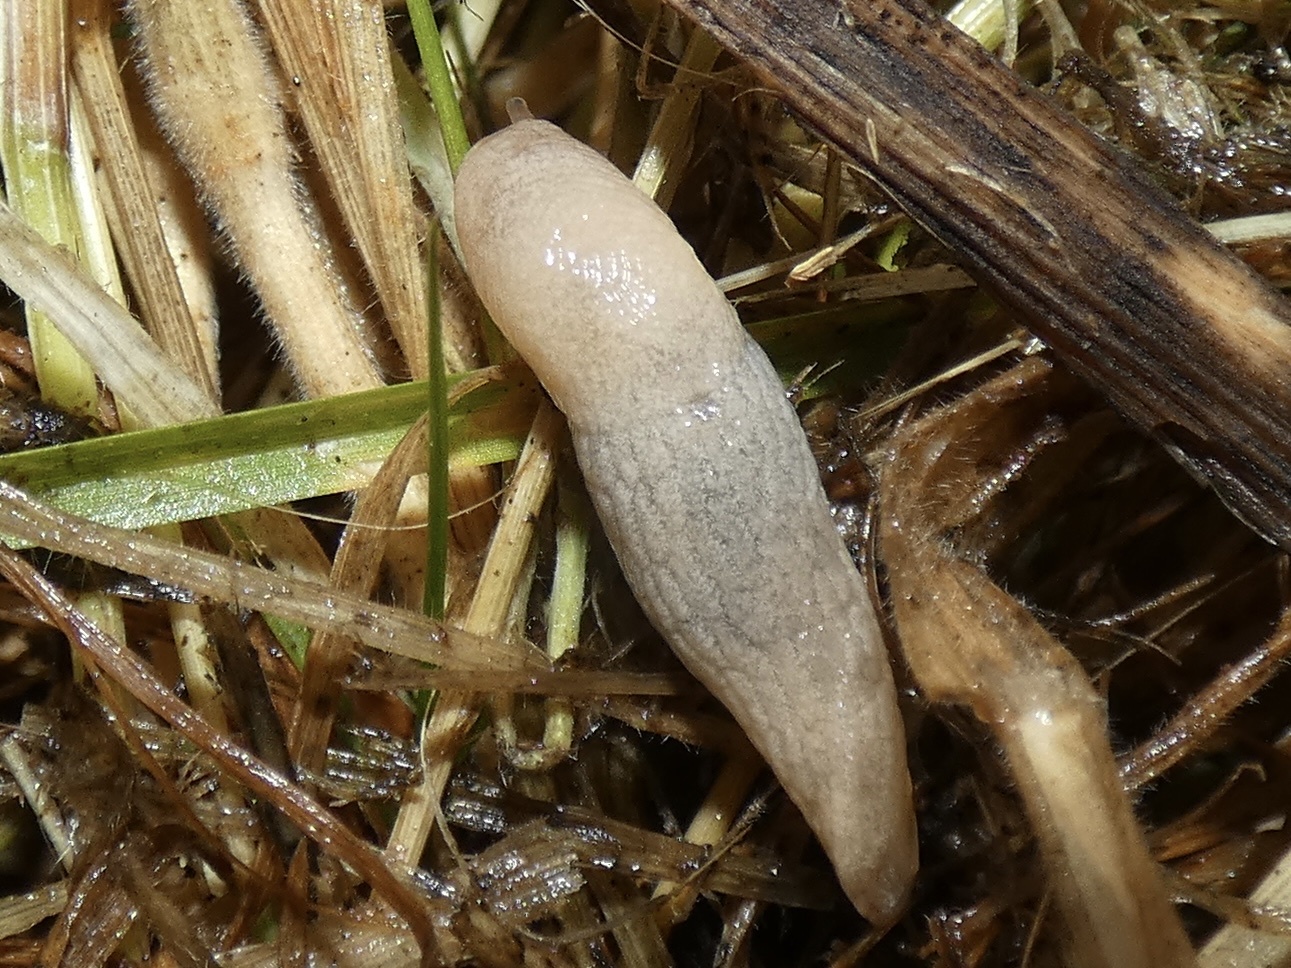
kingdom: Animalia
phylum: Mollusca
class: Gastropoda
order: Stylommatophora
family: Agriolimacidae
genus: Deroceras
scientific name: Deroceras reticulatum
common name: Gray field slug
